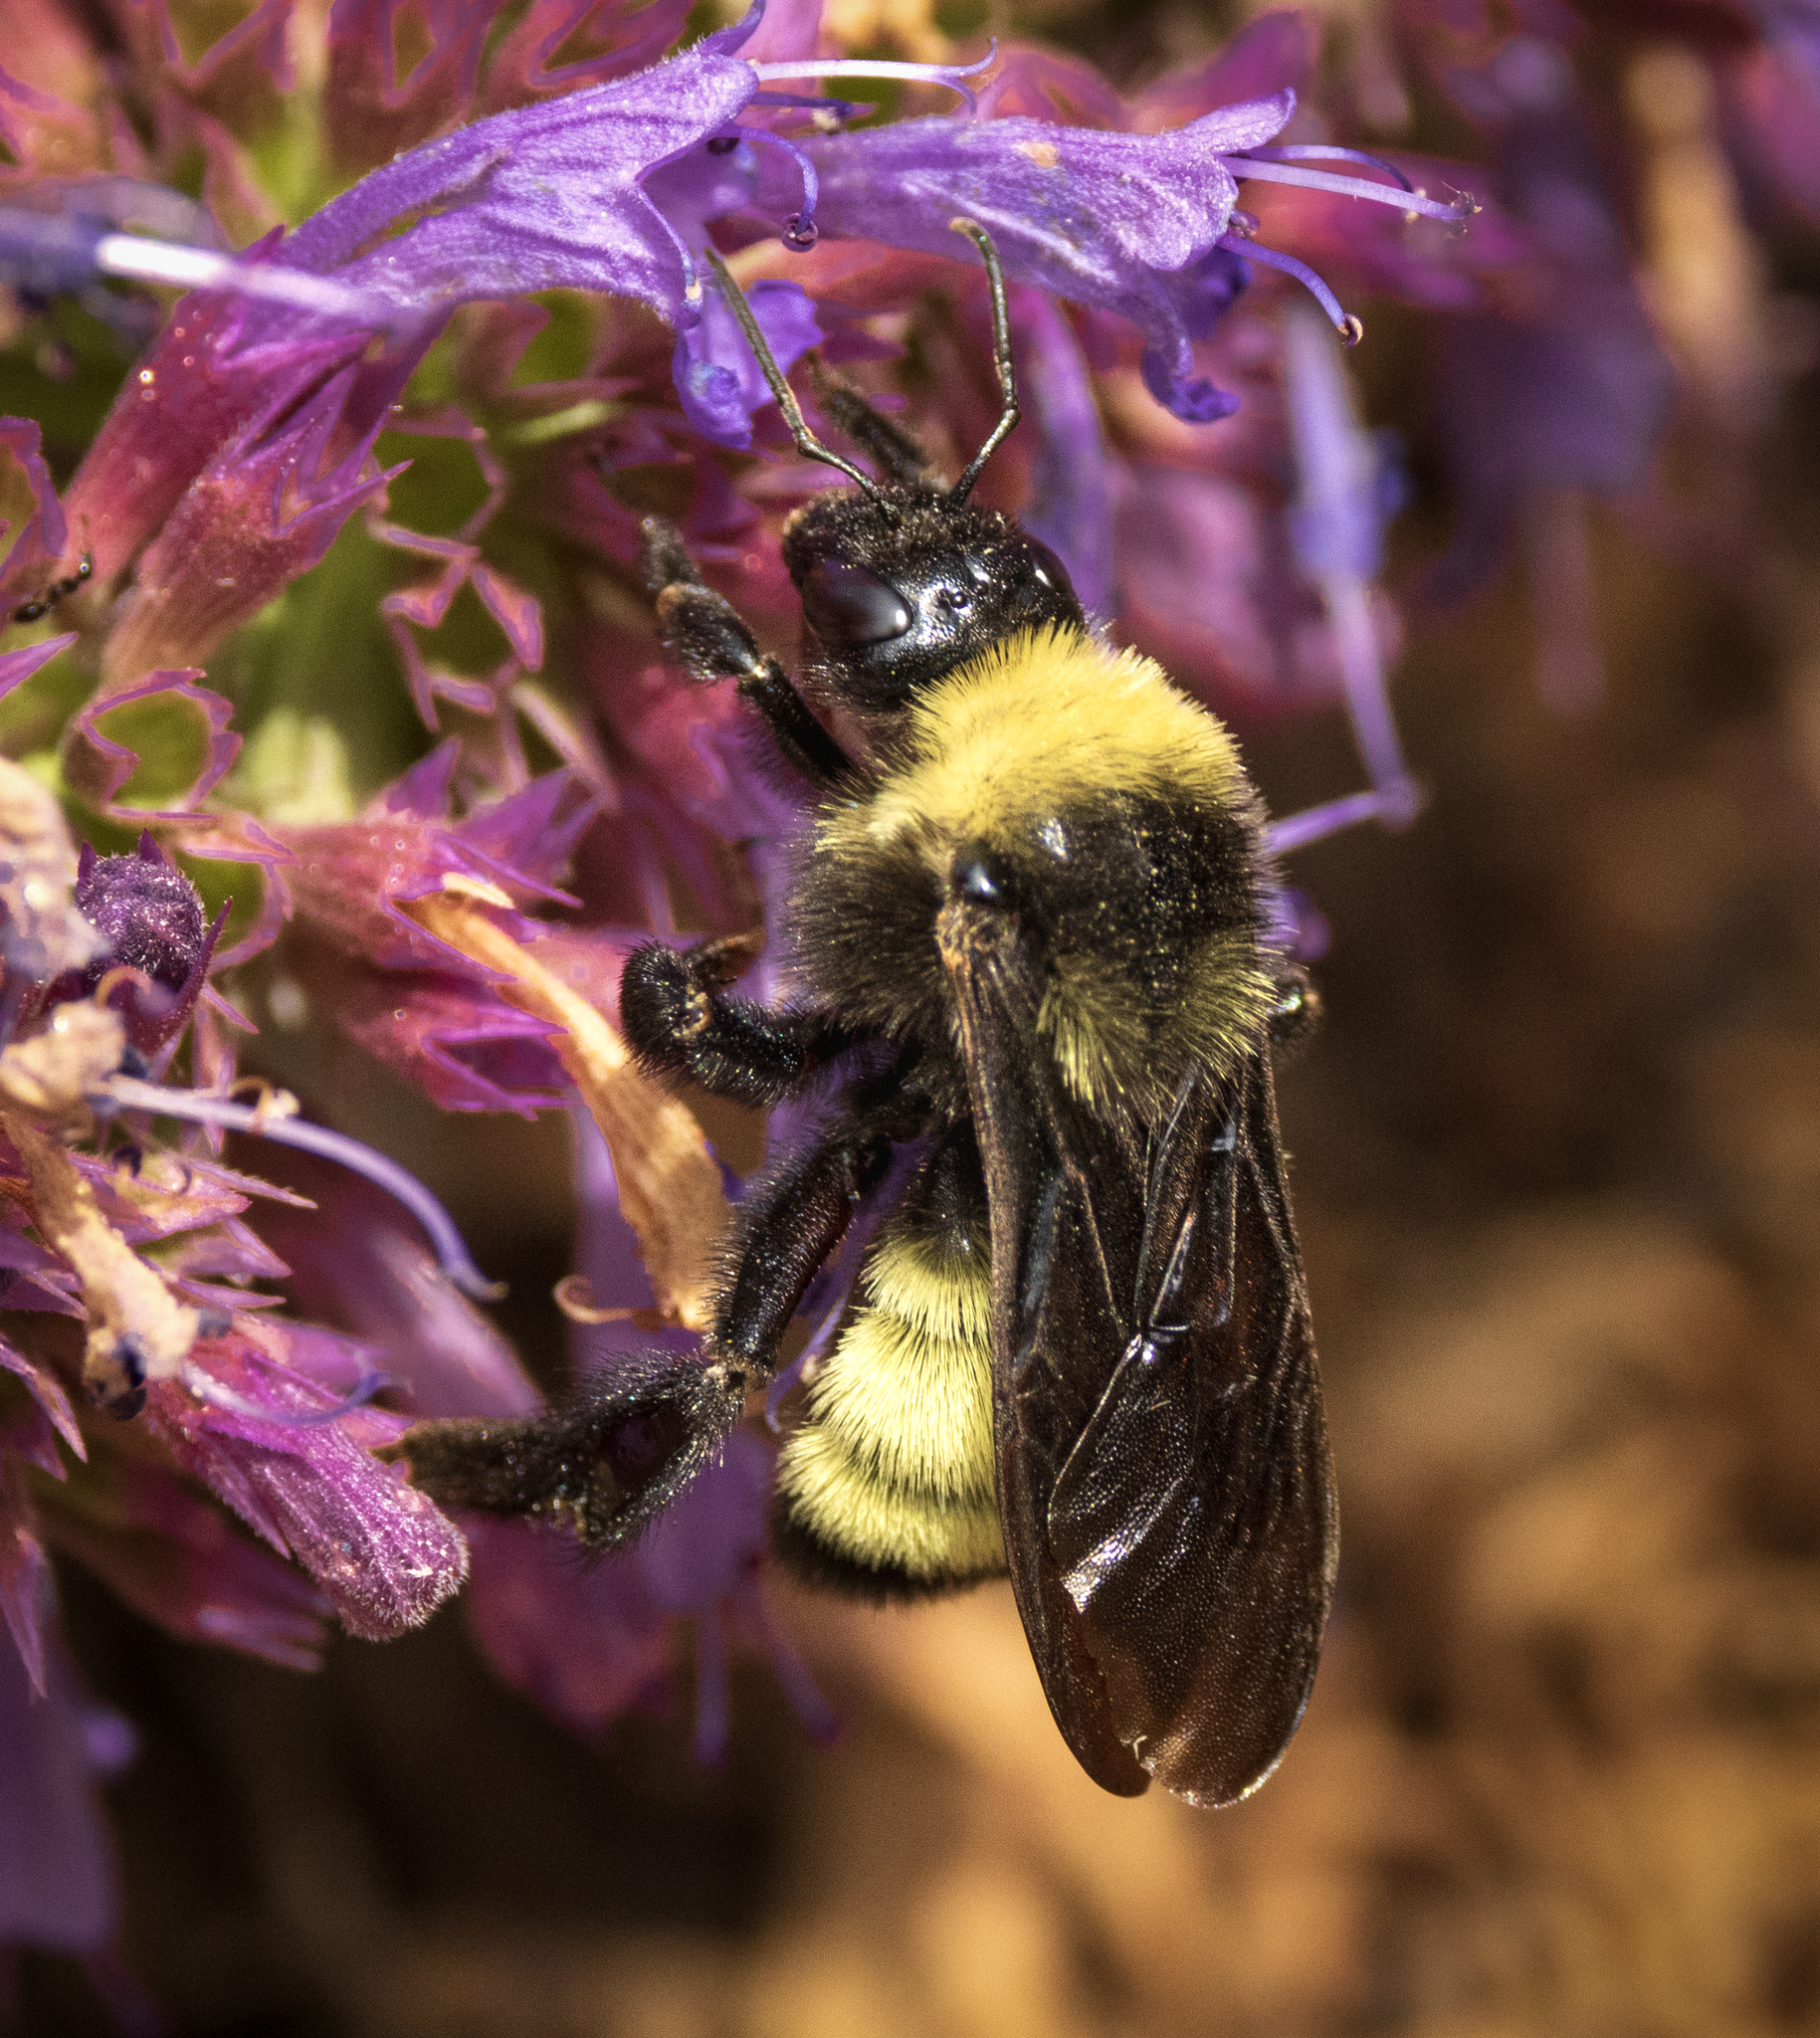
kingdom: Animalia
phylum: Arthropoda
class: Insecta
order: Hymenoptera
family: Apidae
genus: Bombus
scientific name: Bombus pensylvanicus
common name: Bumble bee
